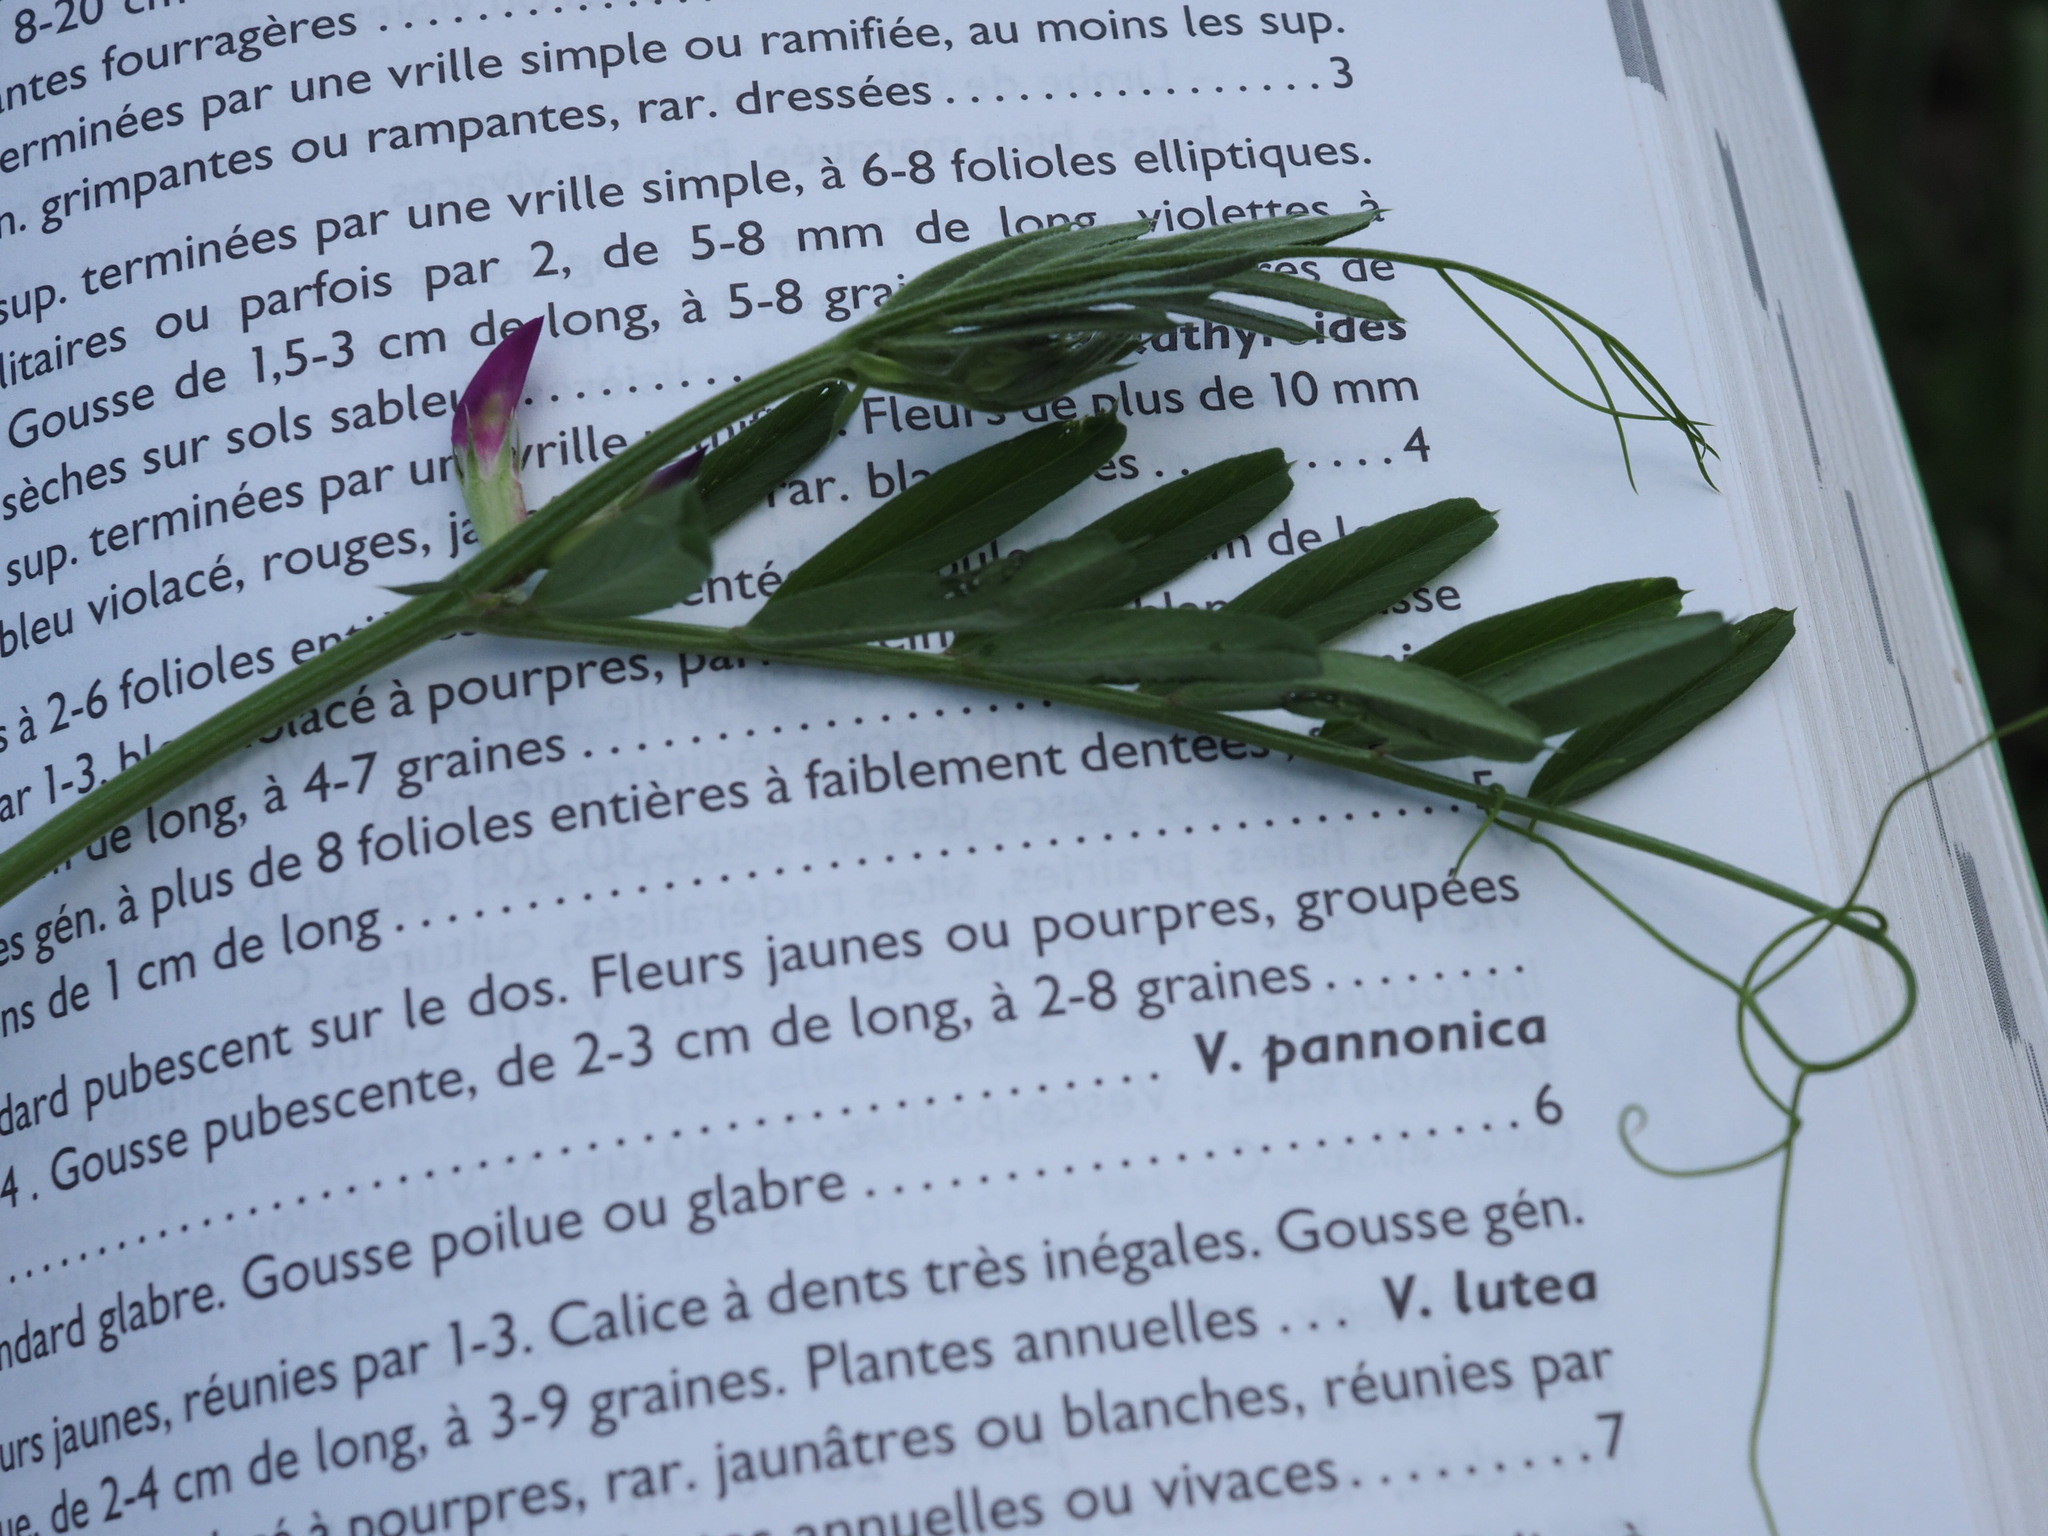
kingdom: Plantae
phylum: Tracheophyta
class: Magnoliopsida
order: Fabales
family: Fabaceae
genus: Vicia
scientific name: Vicia sativa
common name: Garden vetch
